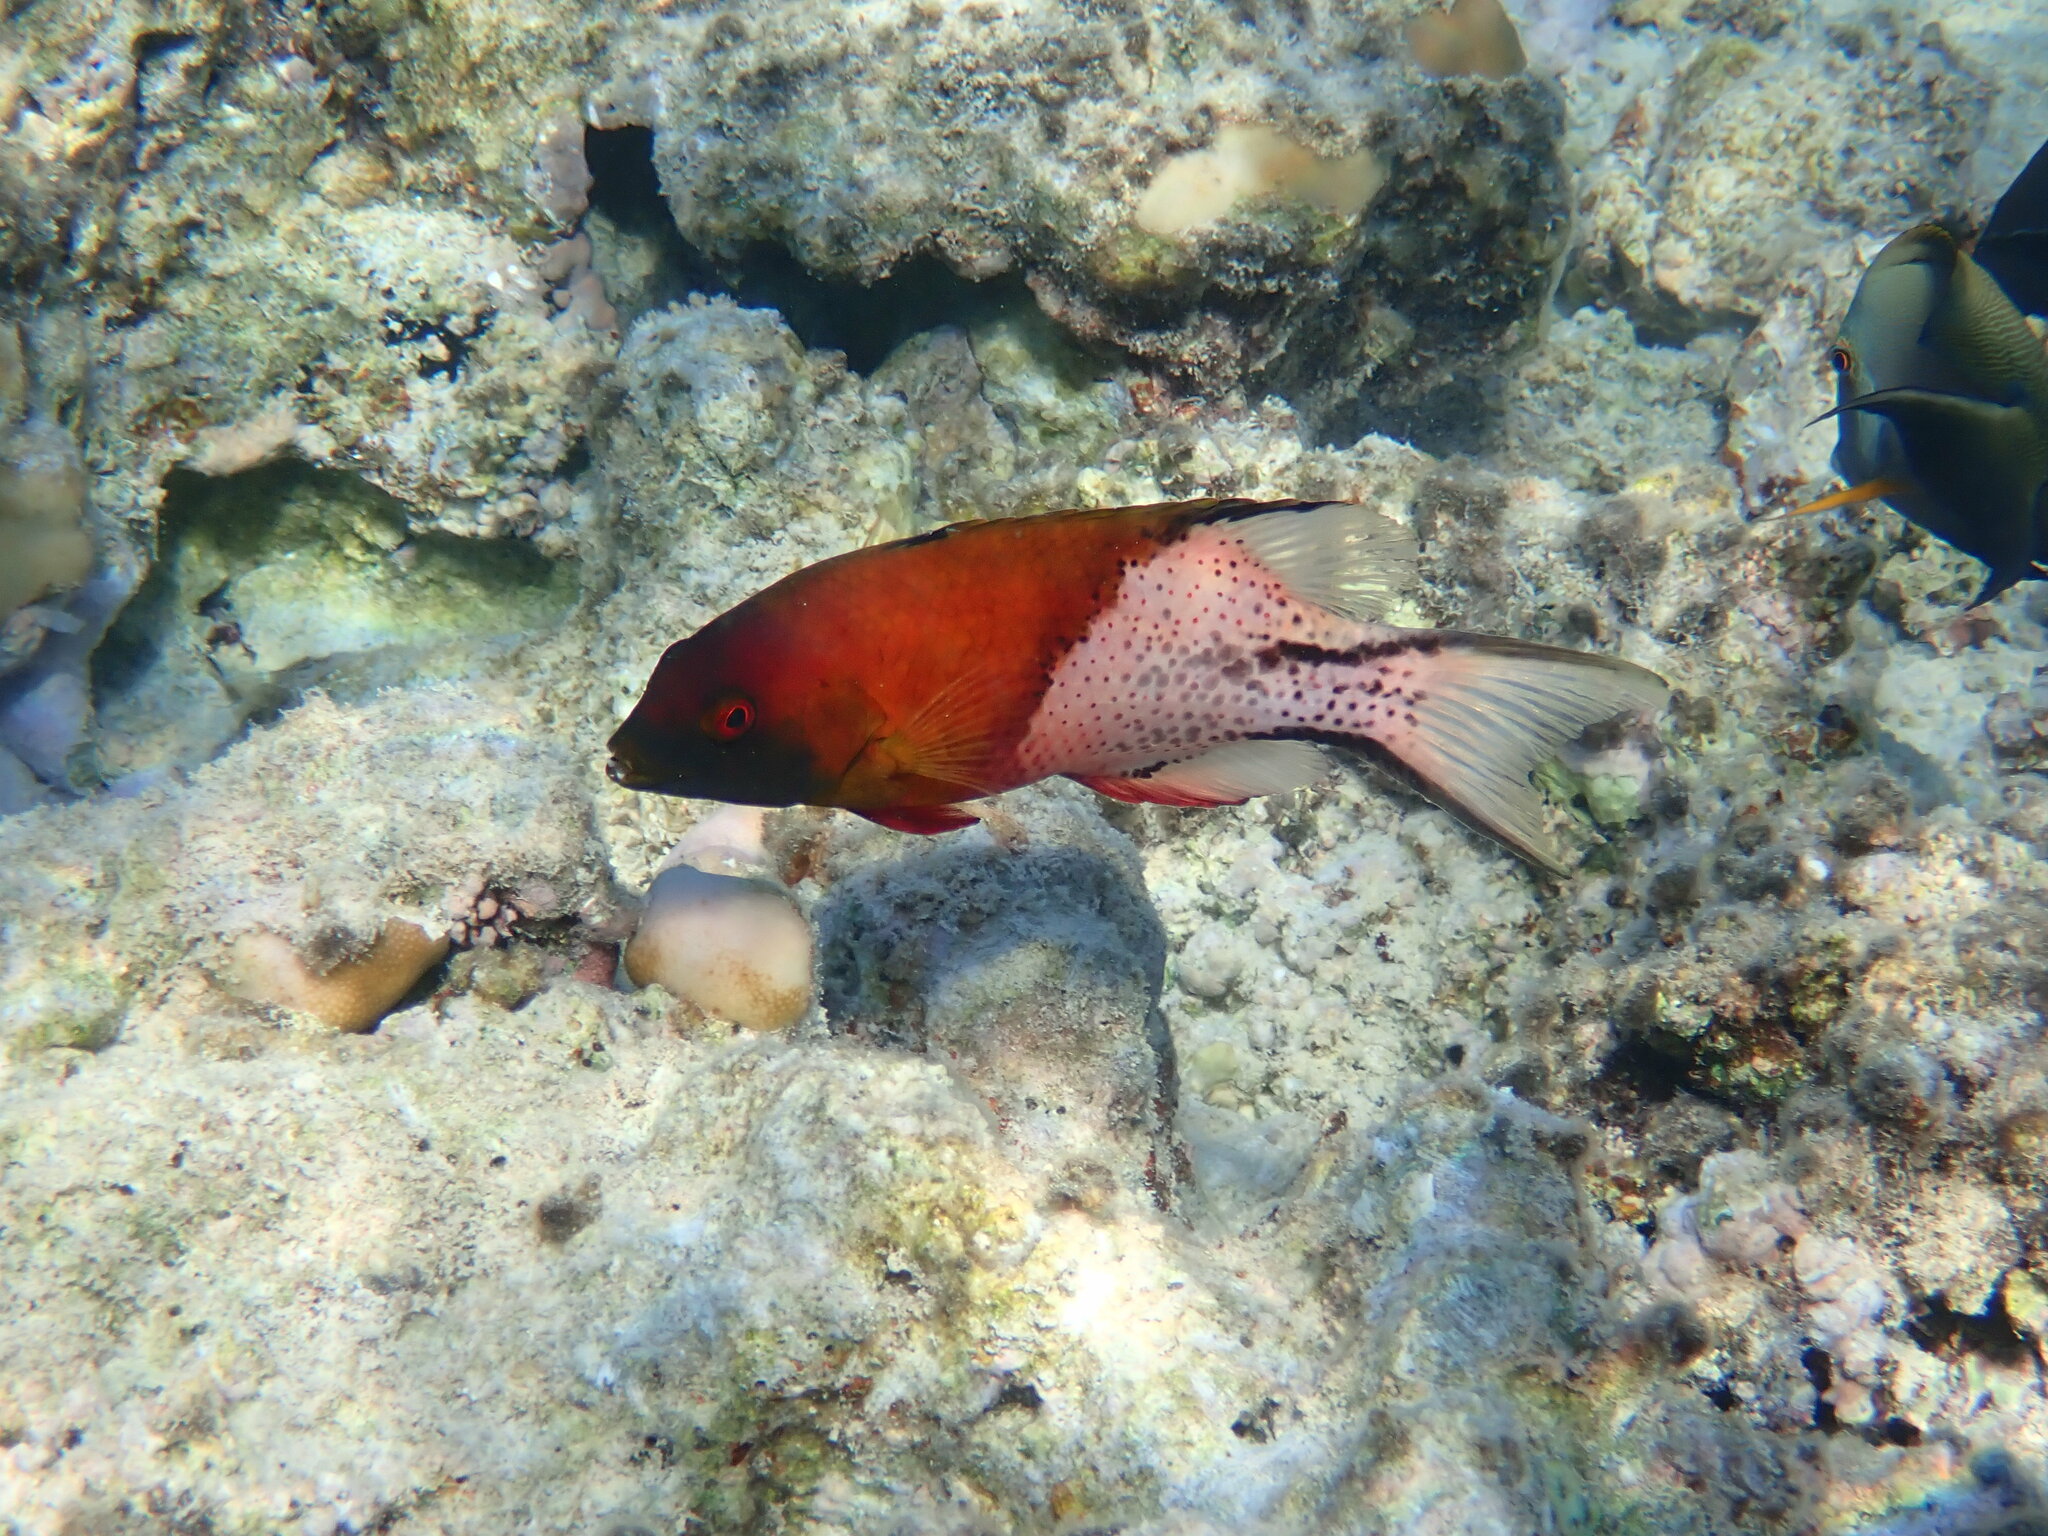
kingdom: Animalia
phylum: Chordata
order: Perciformes
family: Labridae
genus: Bodianus
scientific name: Bodianus anthioides
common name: Lyretail hogfish
